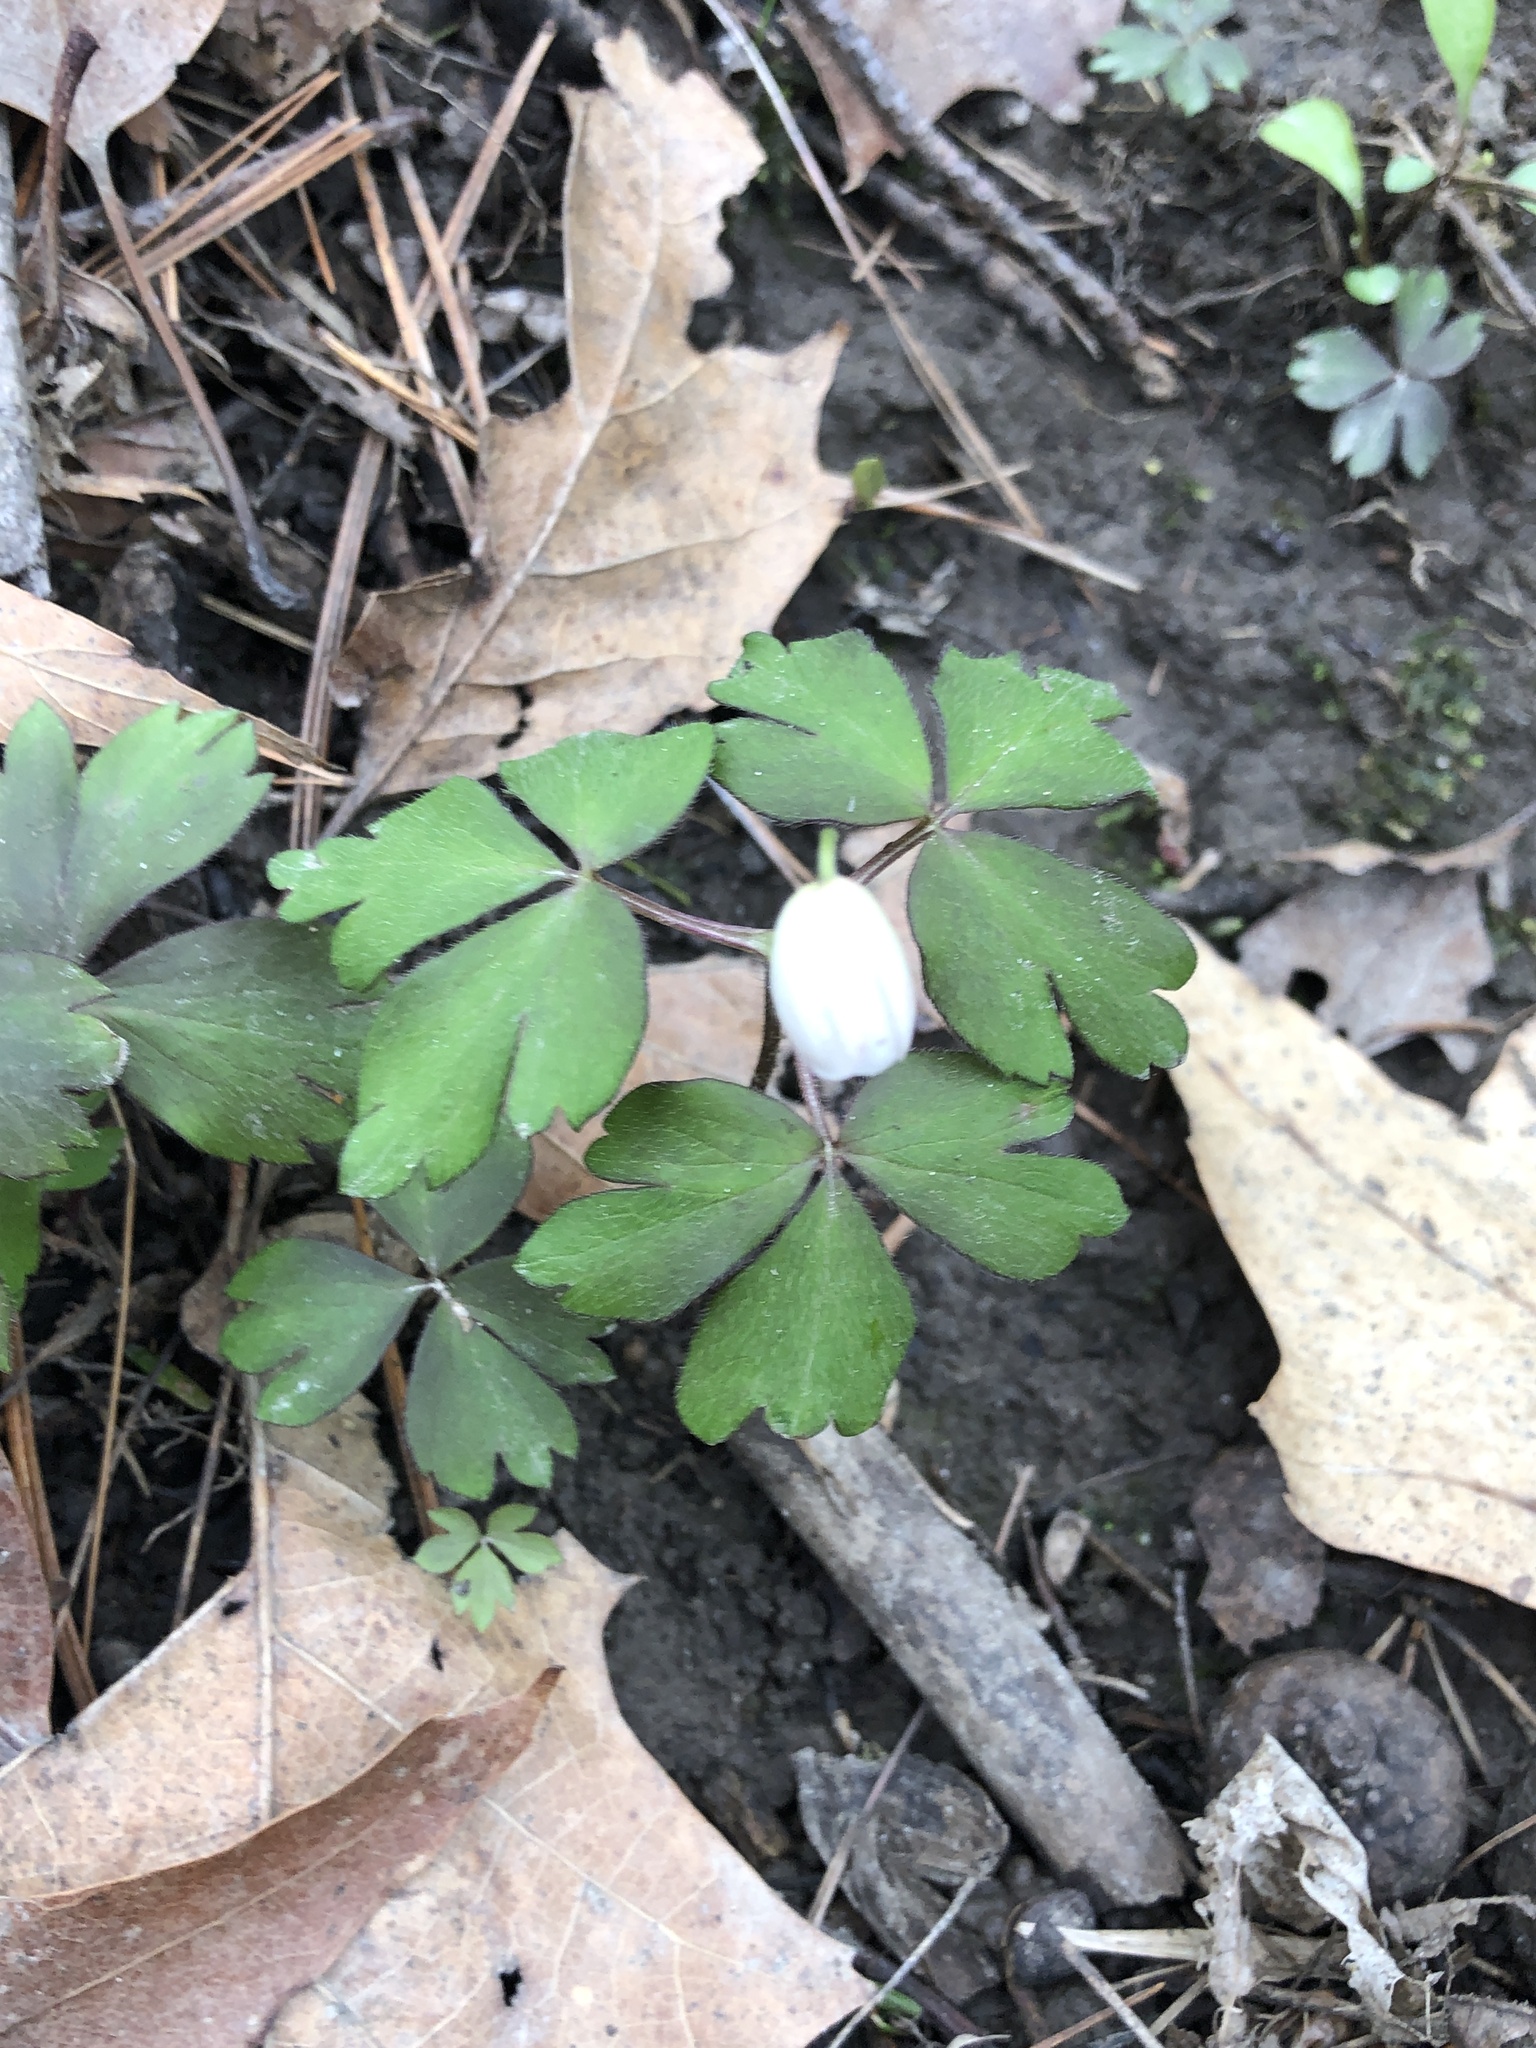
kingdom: Plantae
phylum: Tracheophyta
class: Magnoliopsida
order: Ranunculales
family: Ranunculaceae
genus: Anemone
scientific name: Anemone quinquefolia
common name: Wood anemone
